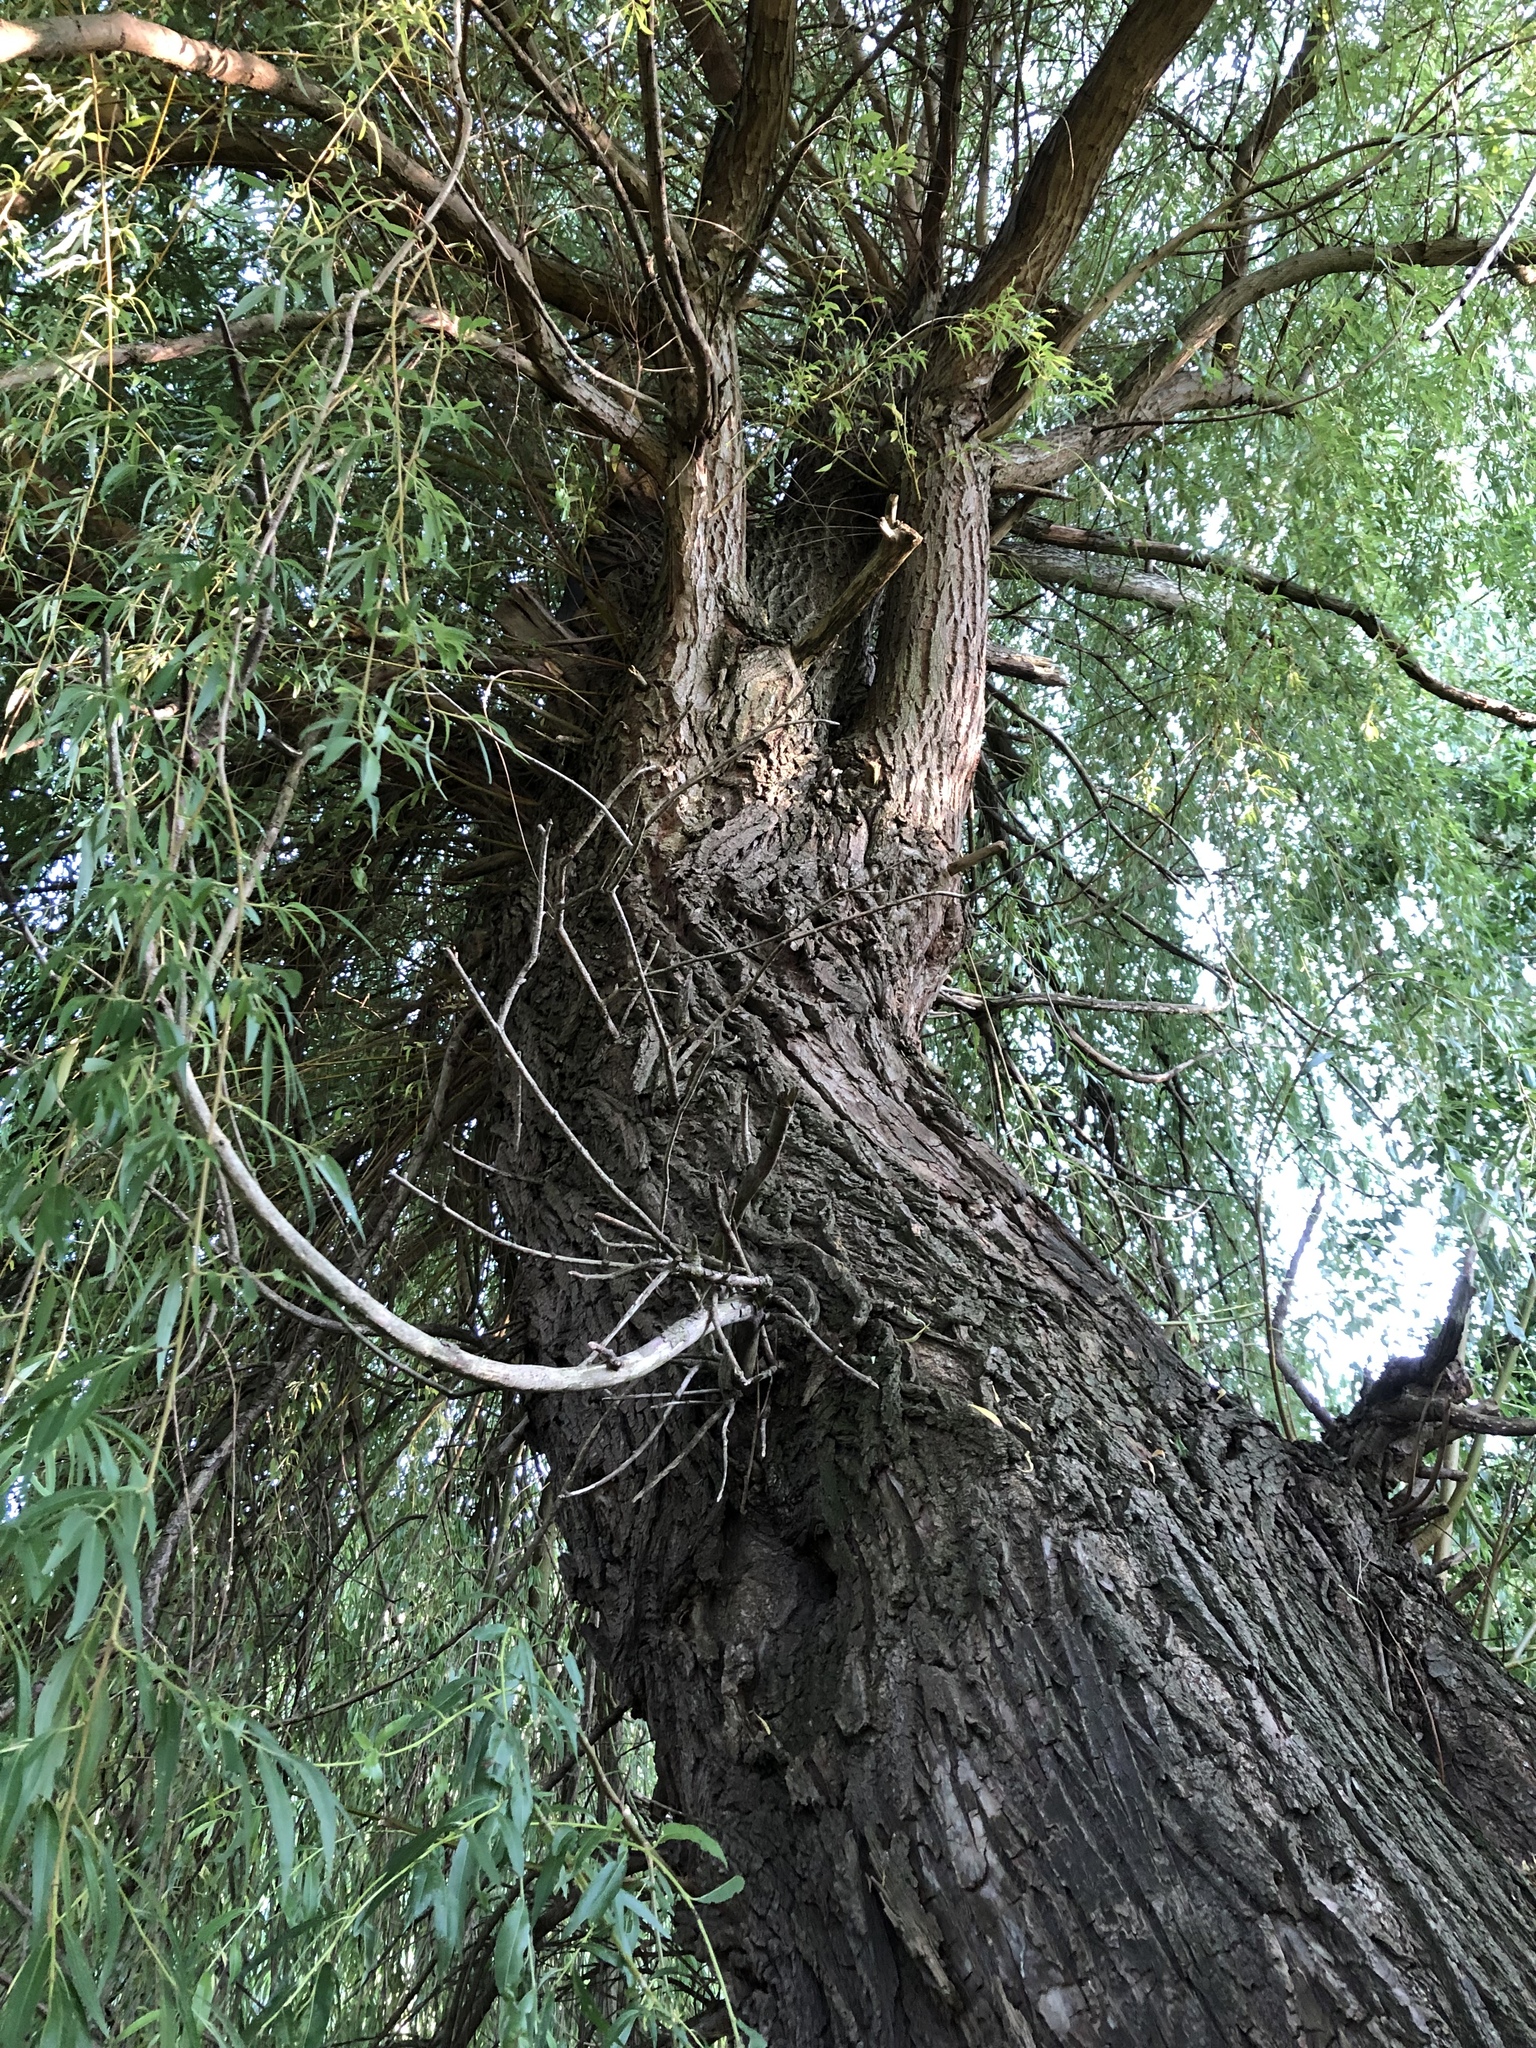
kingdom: Plantae
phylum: Tracheophyta
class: Magnoliopsida
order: Malpighiales
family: Salicaceae
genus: Salix
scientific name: Salix pendulina
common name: Wisconsin weeping willow
